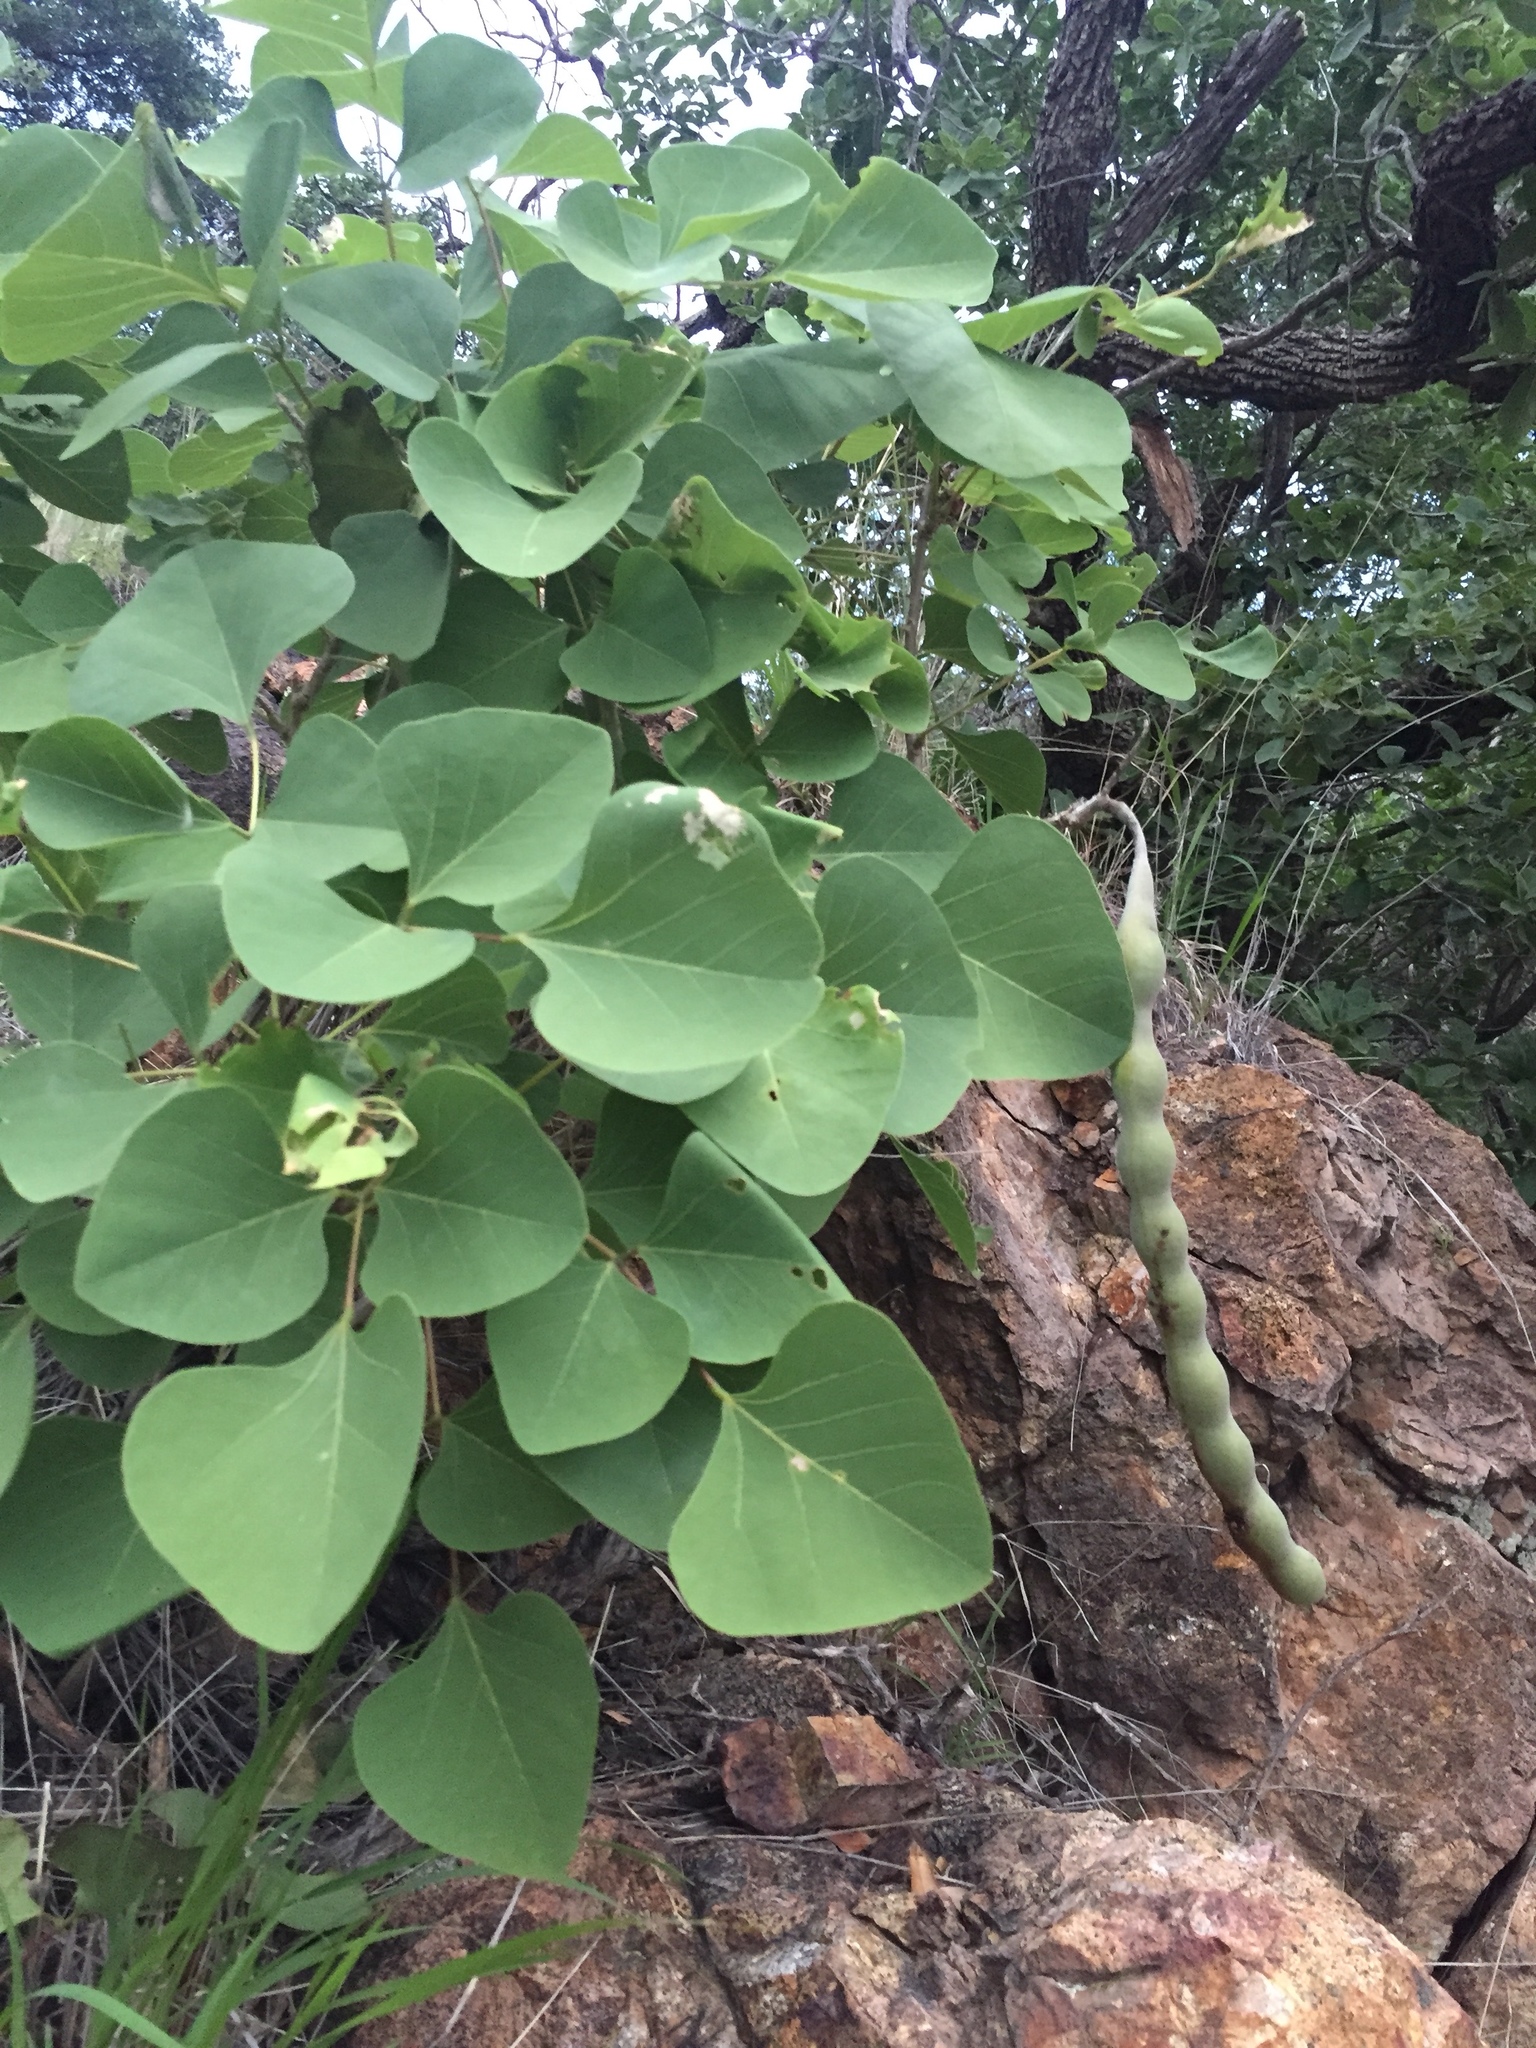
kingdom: Plantae
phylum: Tracheophyta
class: Magnoliopsida
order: Fabales
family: Fabaceae
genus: Erythrina
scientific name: Erythrina flabelliformis
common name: Chilicote
